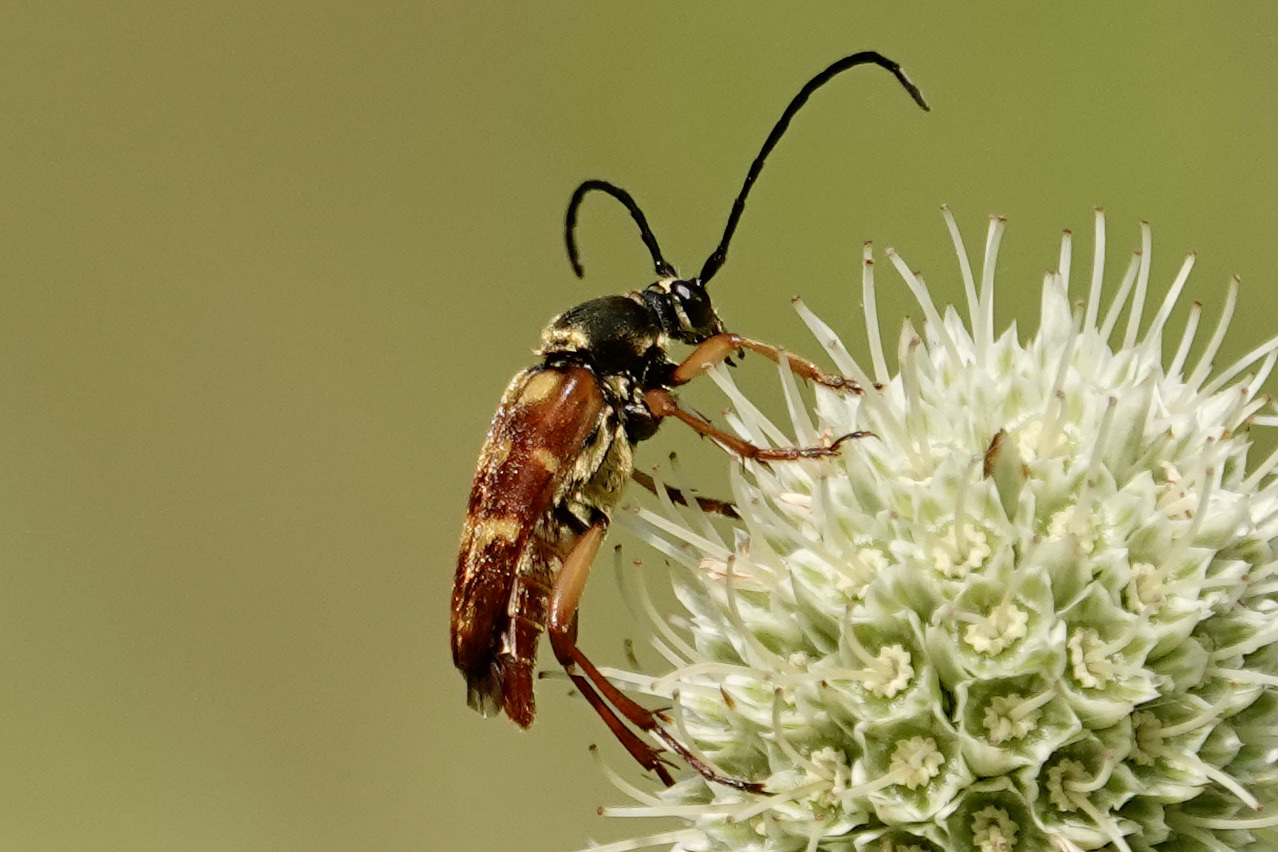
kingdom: Animalia
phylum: Arthropoda
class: Insecta
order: Coleoptera
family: Cerambycidae
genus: Typocerus
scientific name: Typocerus velutinus
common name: Banded longhorn beetle
